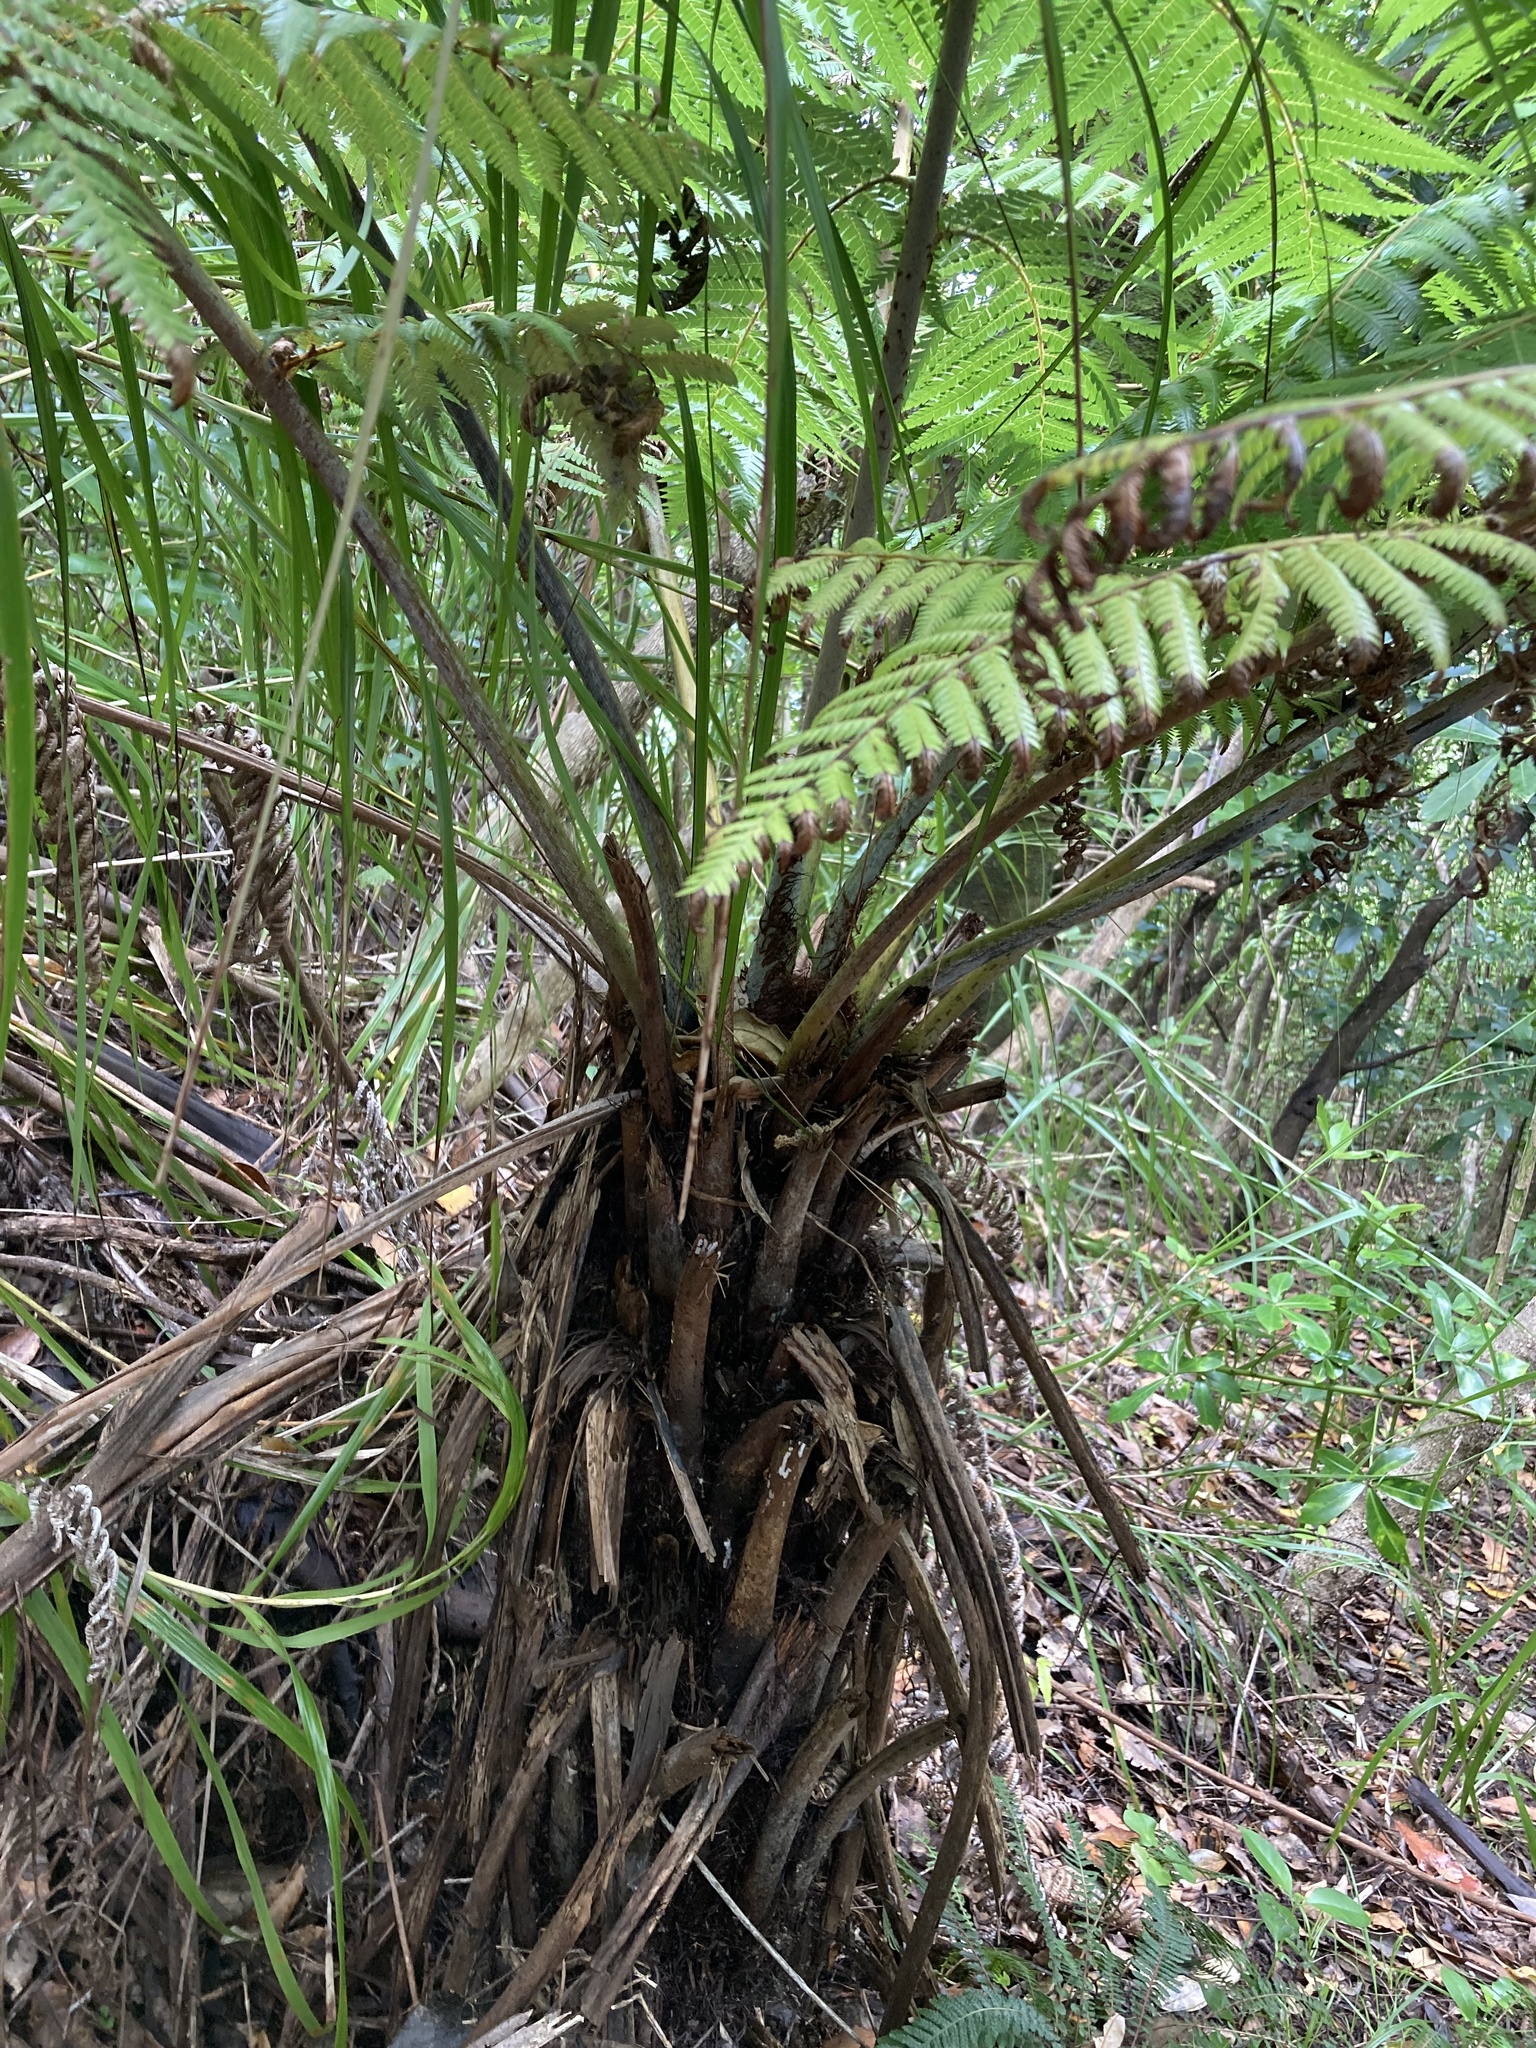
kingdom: Plantae
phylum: Tracheophyta
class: Polypodiopsida
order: Cyatheales
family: Cyatheaceae
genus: Alsophila
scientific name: Alsophila dealbata
